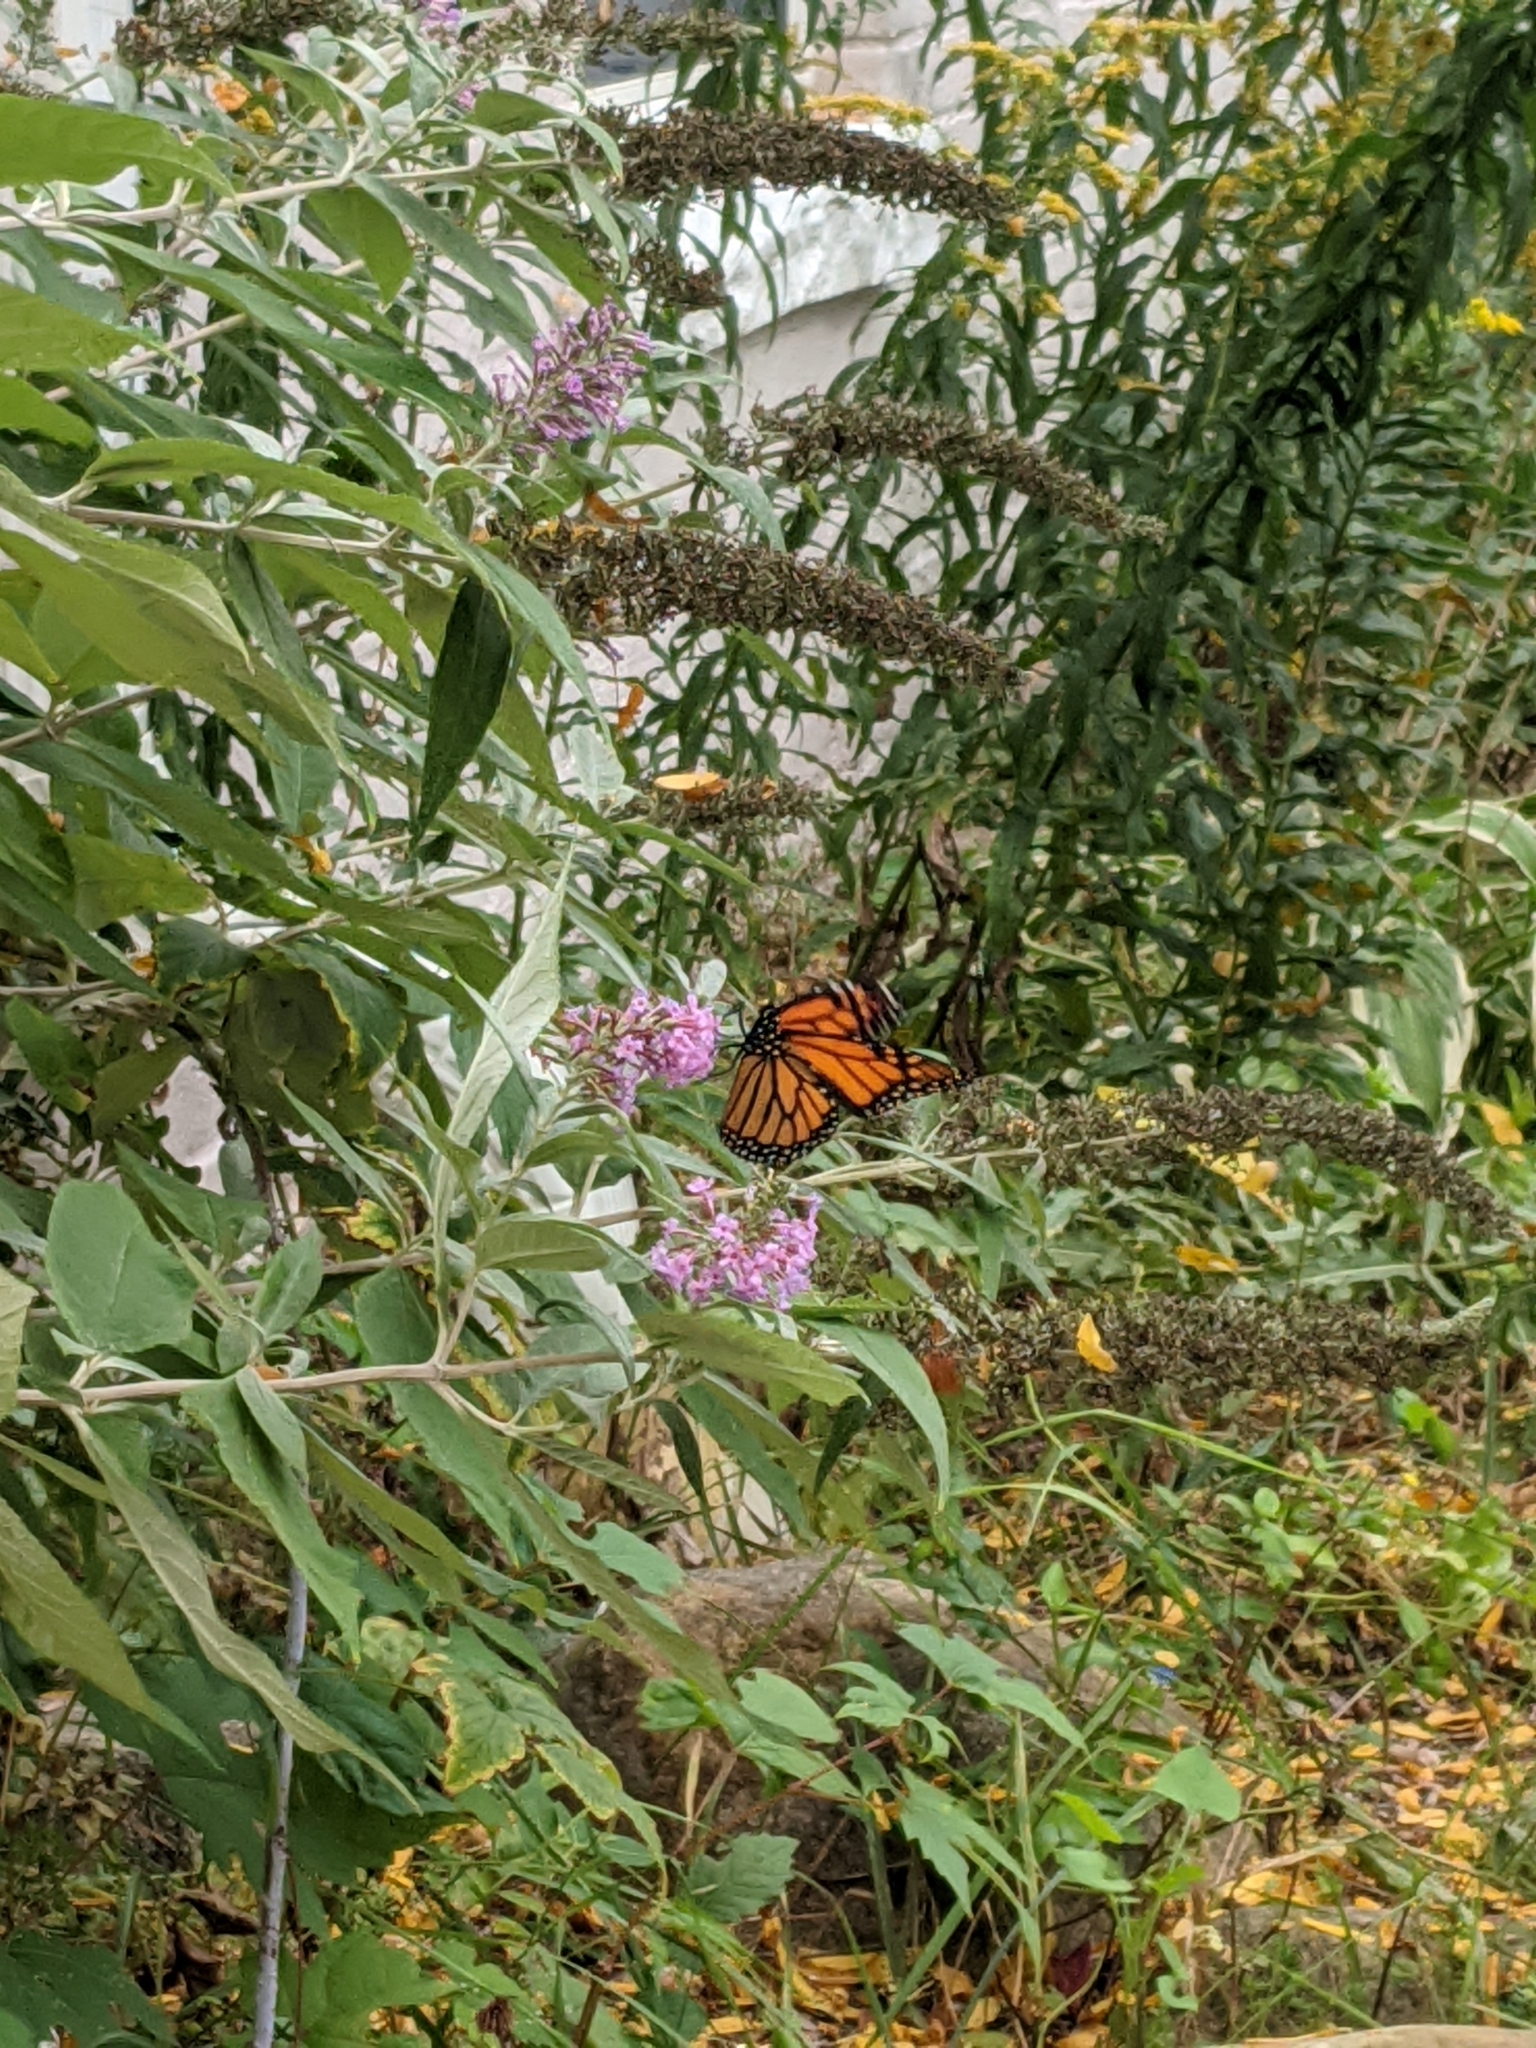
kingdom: Animalia
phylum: Arthropoda
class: Insecta
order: Lepidoptera
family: Nymphalidae
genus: Danaus
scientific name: Danaus plexippus
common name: Monarch
